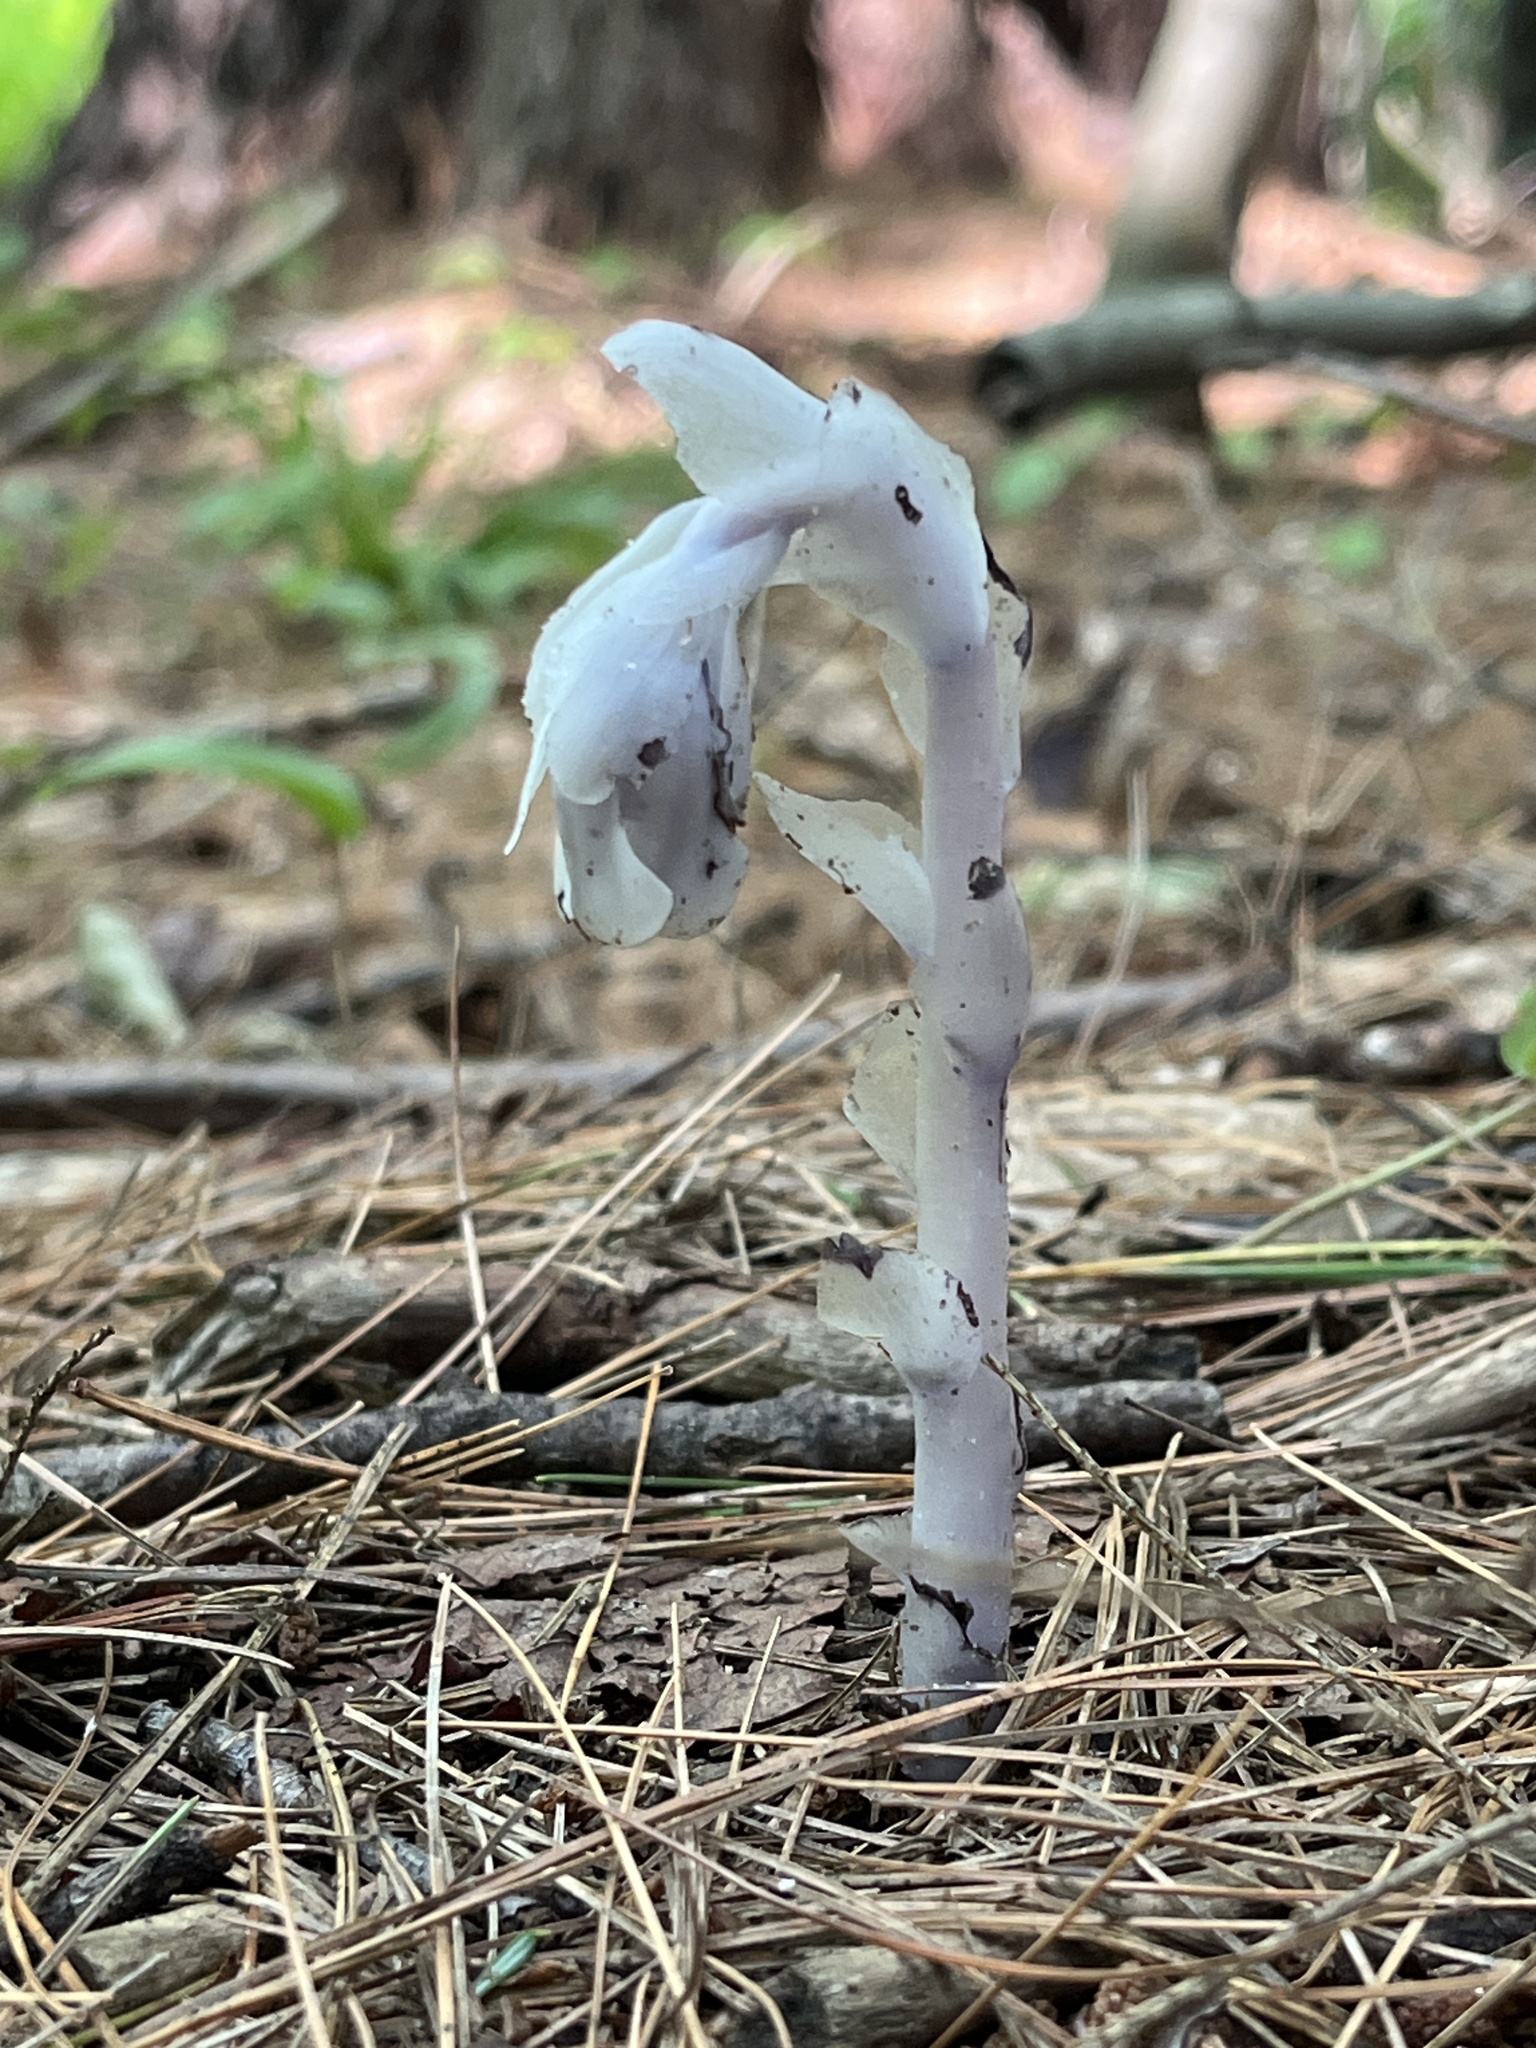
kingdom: Plantae
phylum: Tracheophyta
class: Magnoliopsida
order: Ericales
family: Ericaceae
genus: Monotropa
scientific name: Monotropa uniflora
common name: Convulsion root
